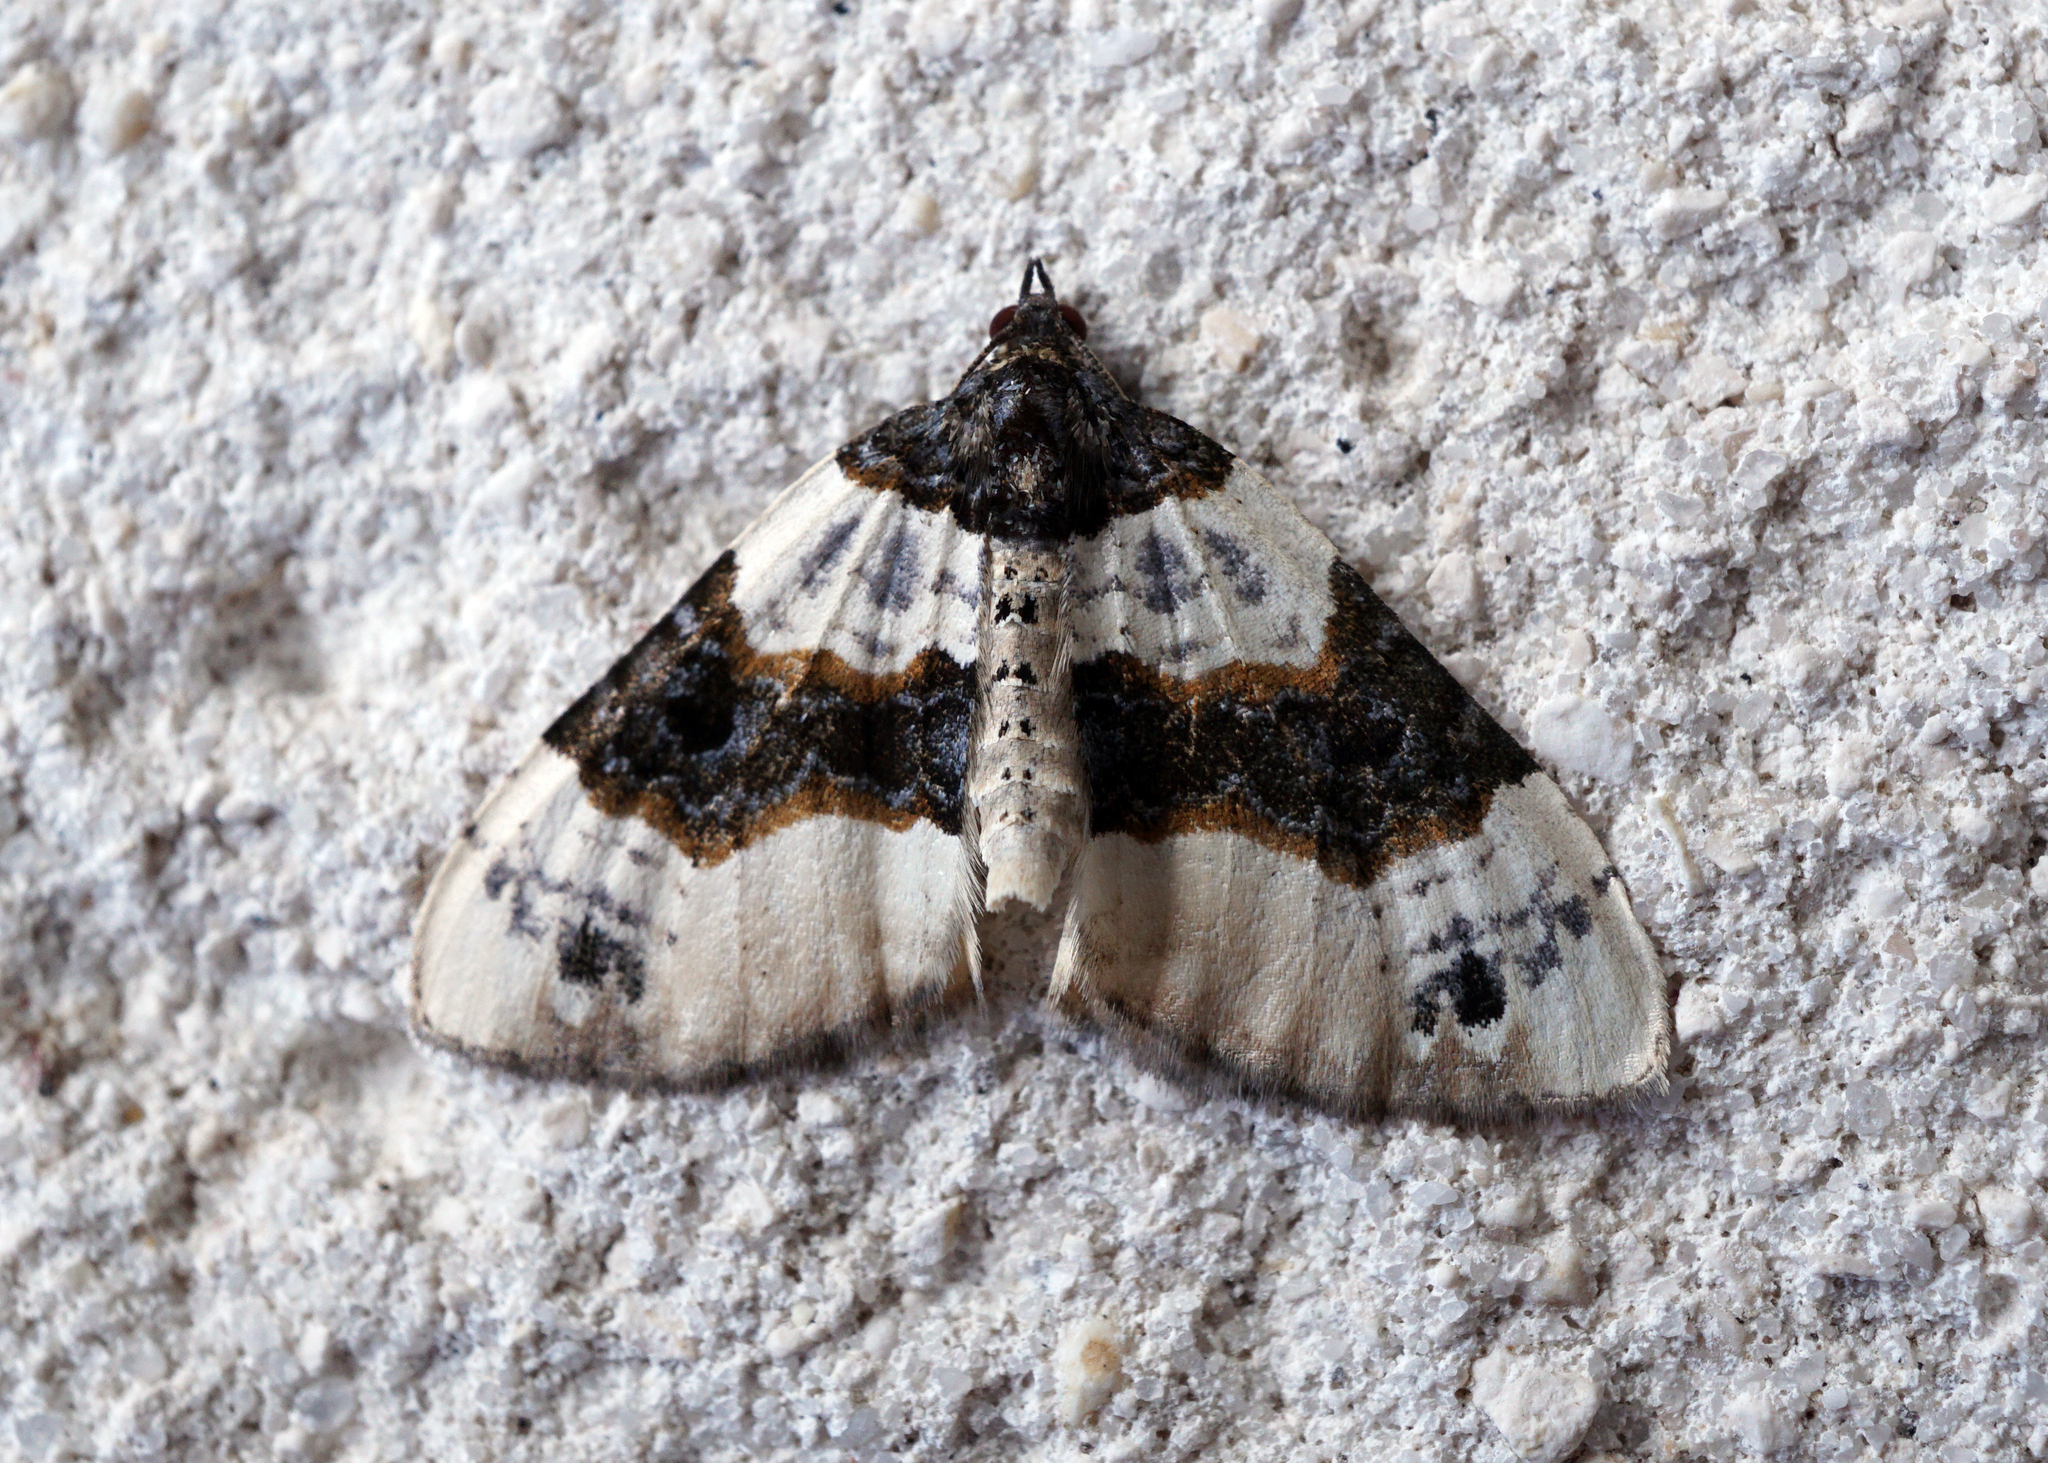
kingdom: Animalia
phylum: Arthropoda
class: Insecta
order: Lepidoptera
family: Geometridae
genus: Cosmorhoe
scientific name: Cosmorhoe ocellata
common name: Purple bar
